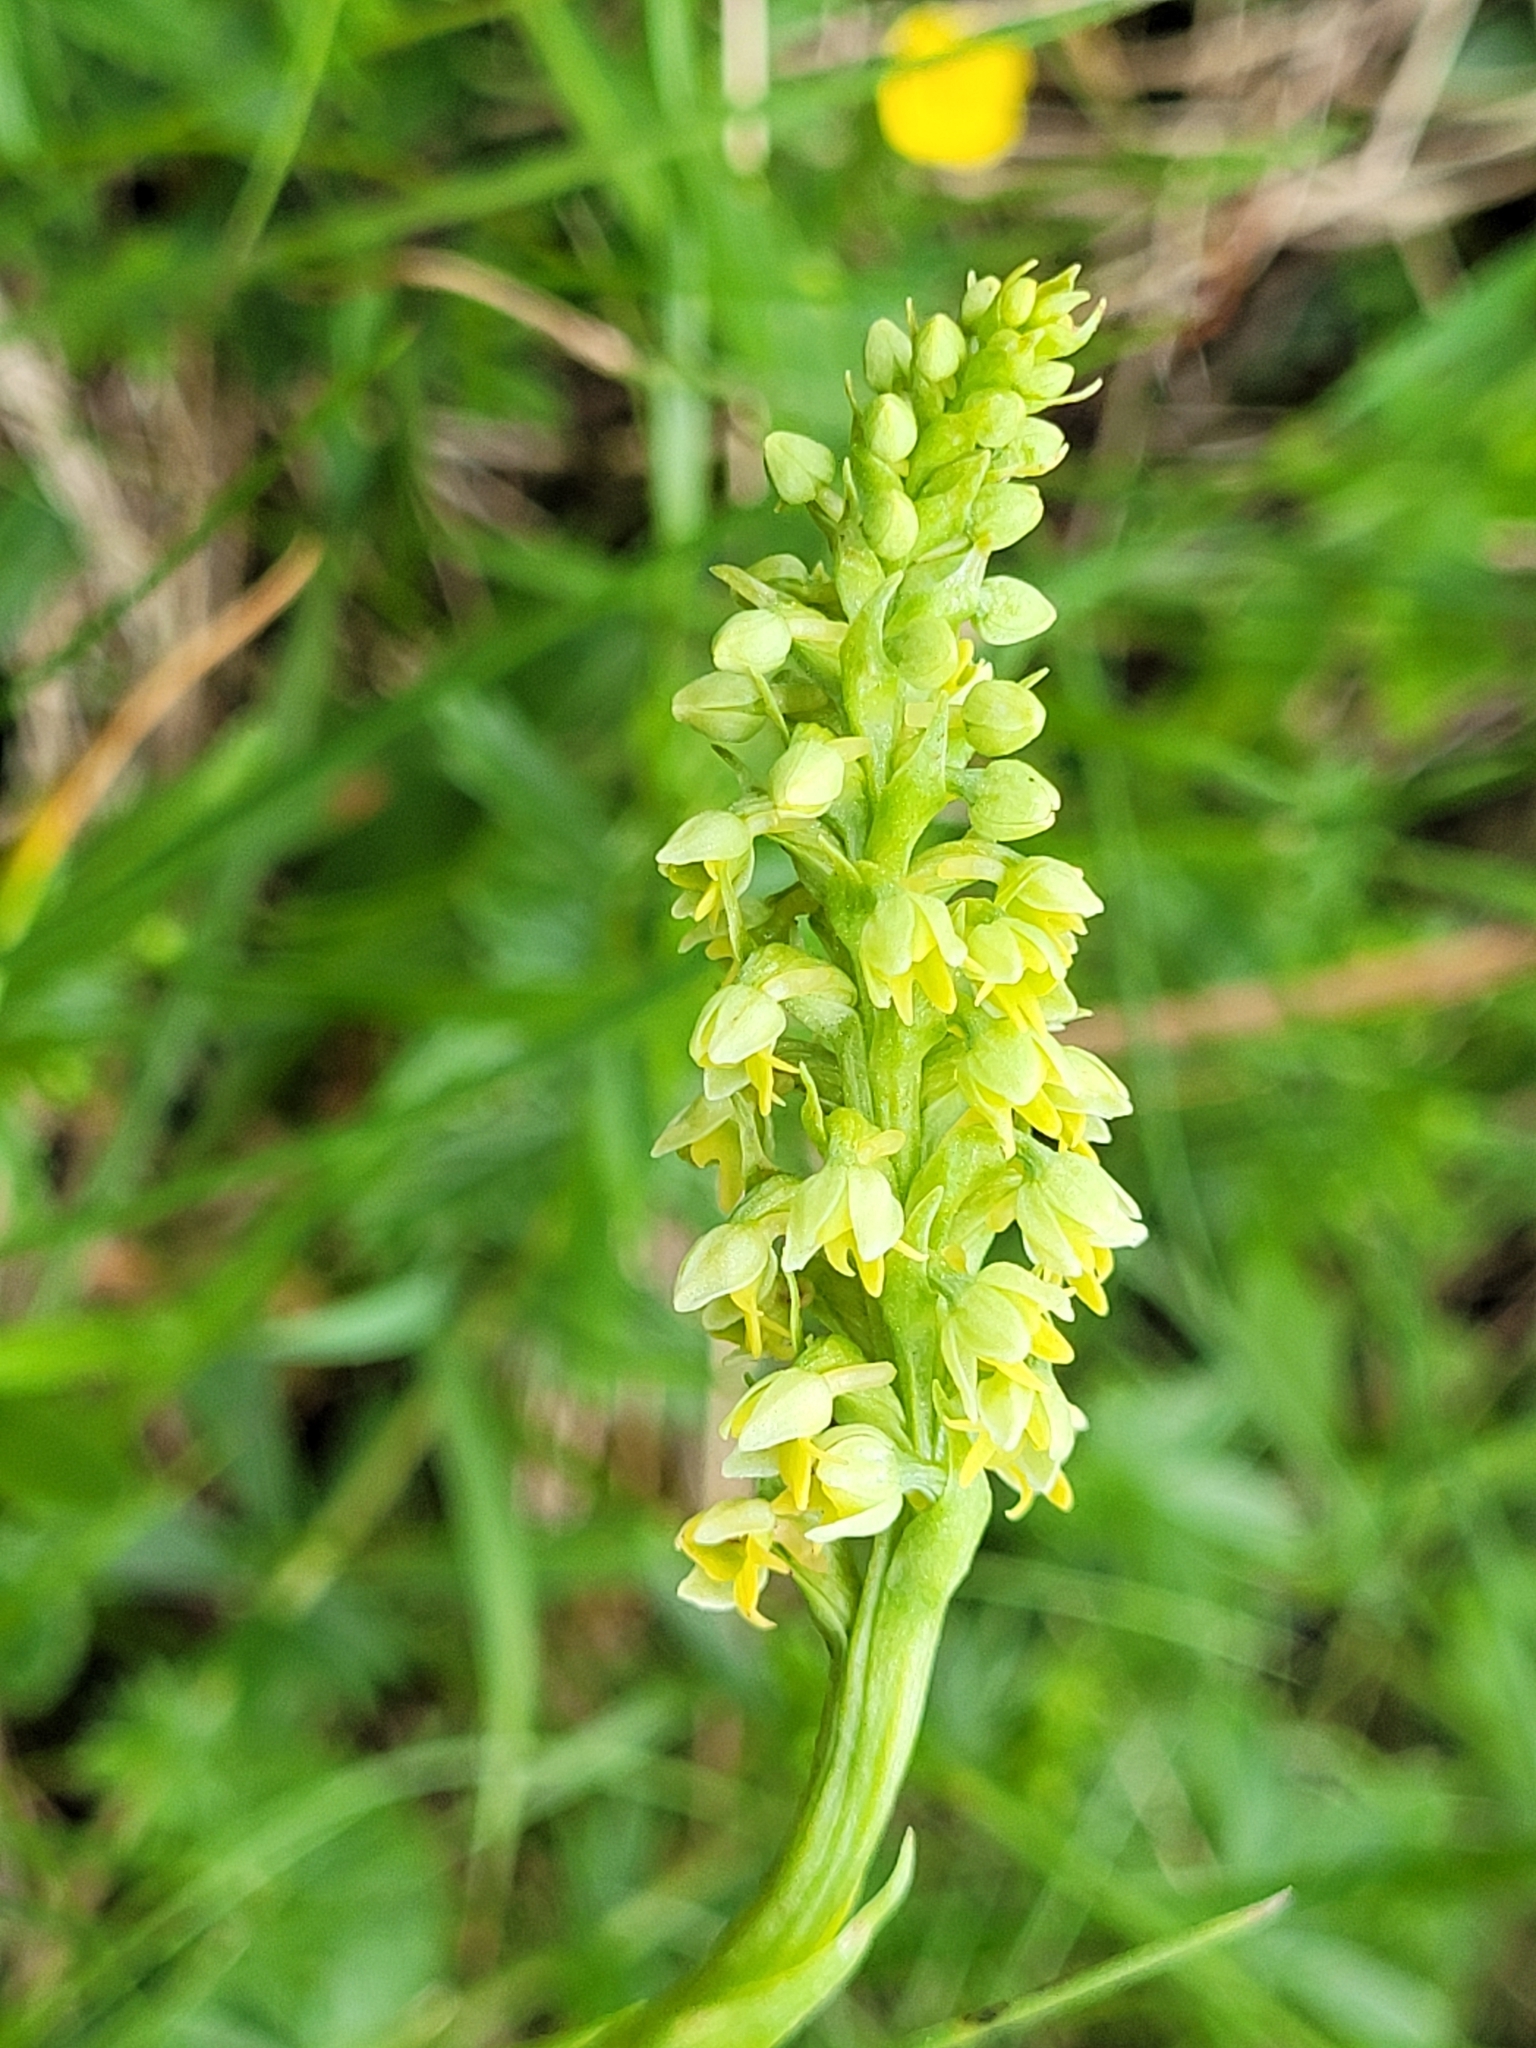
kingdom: Plantae
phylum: Tracheophyta
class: Liliopsida
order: Asparagales
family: Orchidaceae
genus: Pseudorchis
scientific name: Pseudorchis albida
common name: Small-white orchid
